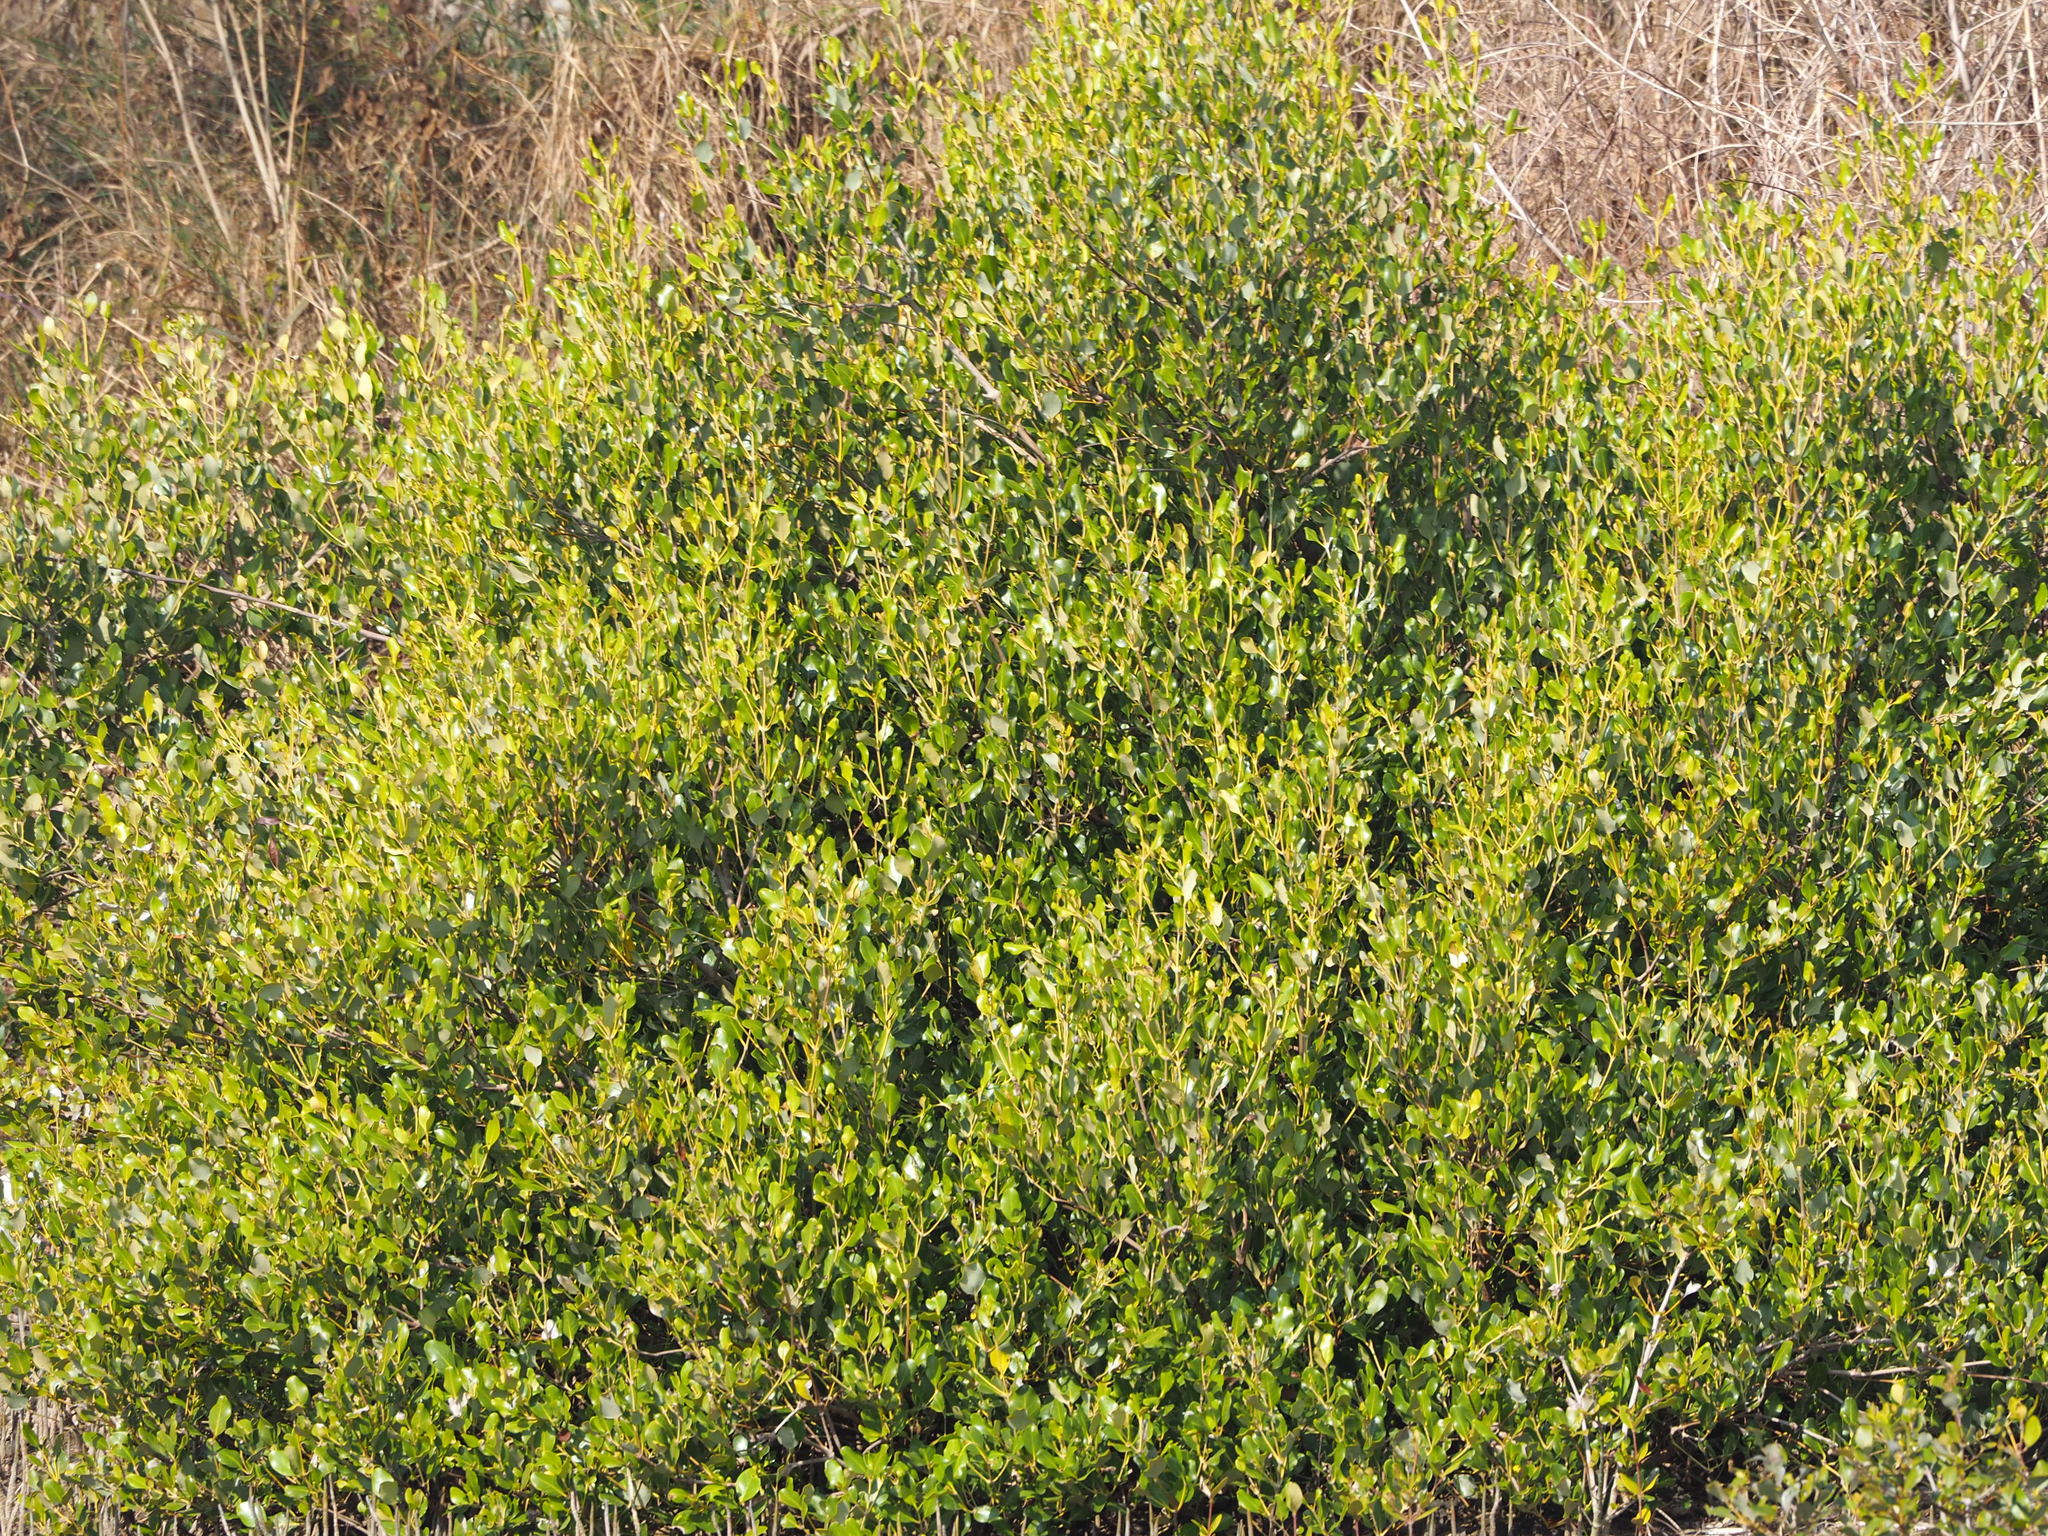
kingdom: Plantae
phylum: Tracheophyta
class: Magnoliopsida
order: Lamiales
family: Acanthaceae
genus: Avicennia
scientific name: Avicennia marina
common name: Gray mangrove
